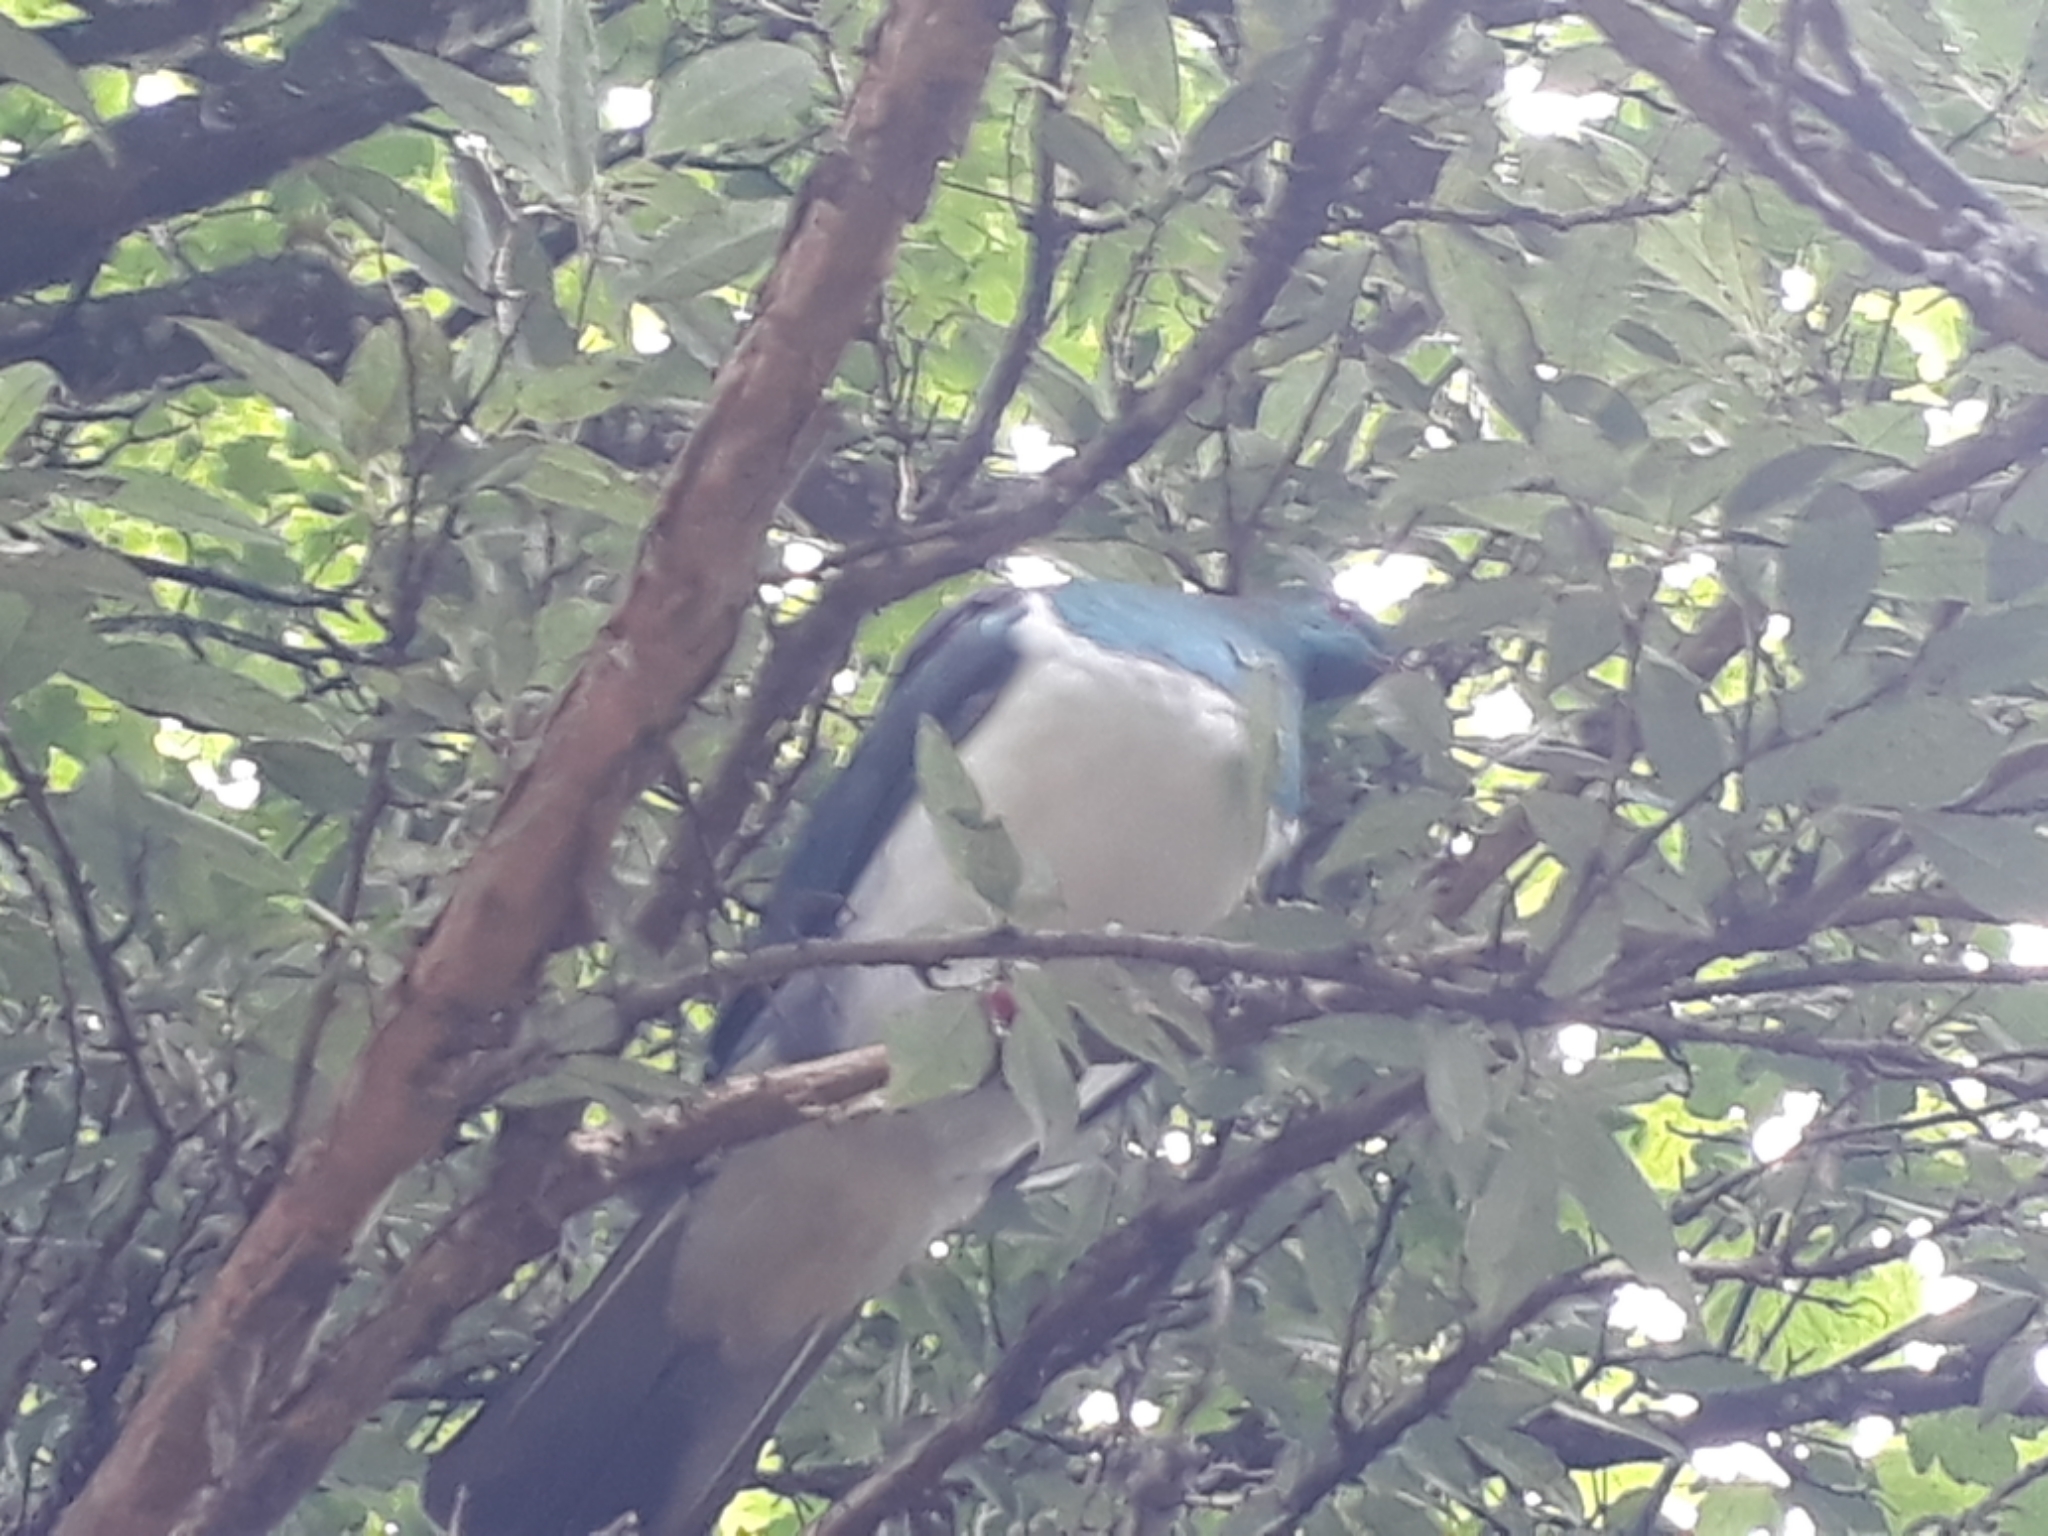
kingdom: Animalia
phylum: Chordata
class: Aves
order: Columbiformes
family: Columbidae
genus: Hemiphaga
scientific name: Hemiphaga novaeseelandiae
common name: New zealand pigeon
